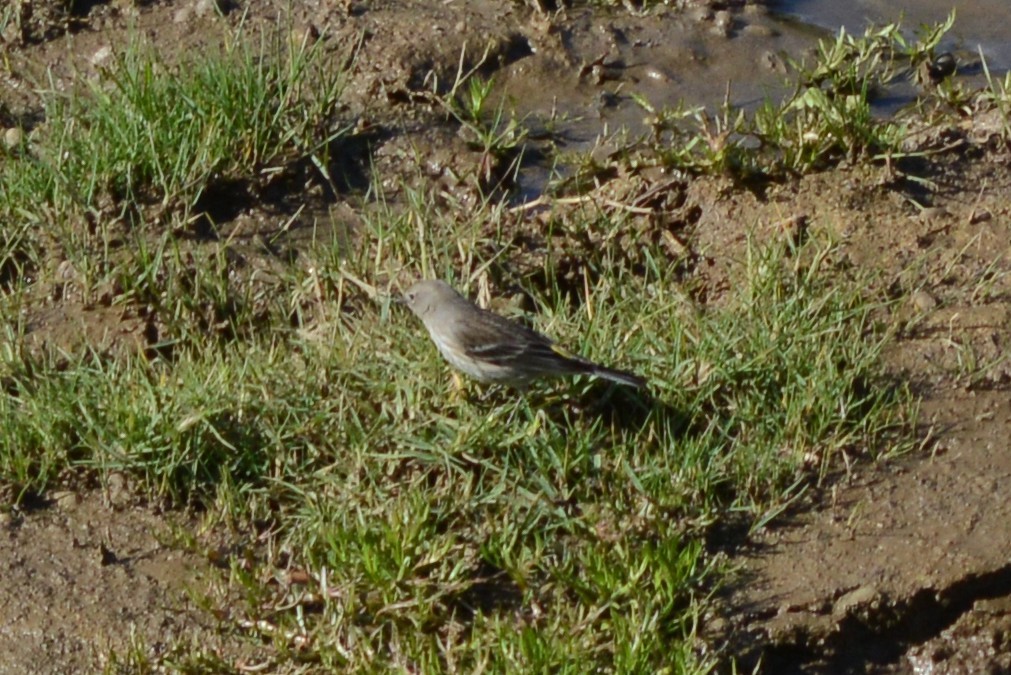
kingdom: Animalia
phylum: Chordata
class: Aves
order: Passeriformes
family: Parulidae
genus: Setophaga
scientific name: Setophaga coronata
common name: Myrtle warbler
